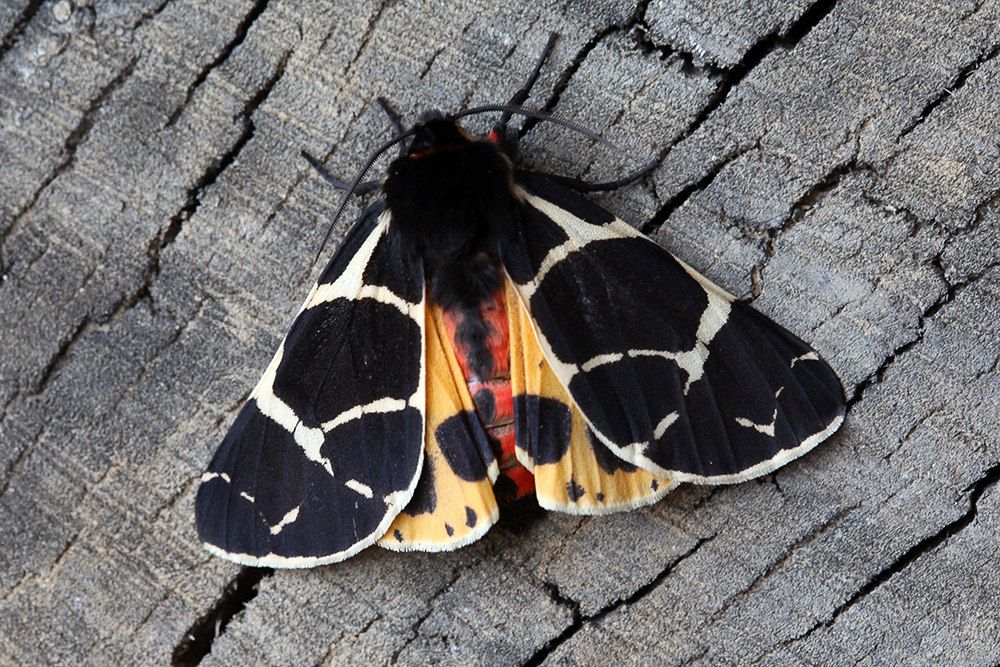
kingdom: Animalia
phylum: Arthropoda
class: Insecta
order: Lepidoptera
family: Erebidae
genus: Arctia
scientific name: Arctia flavia
